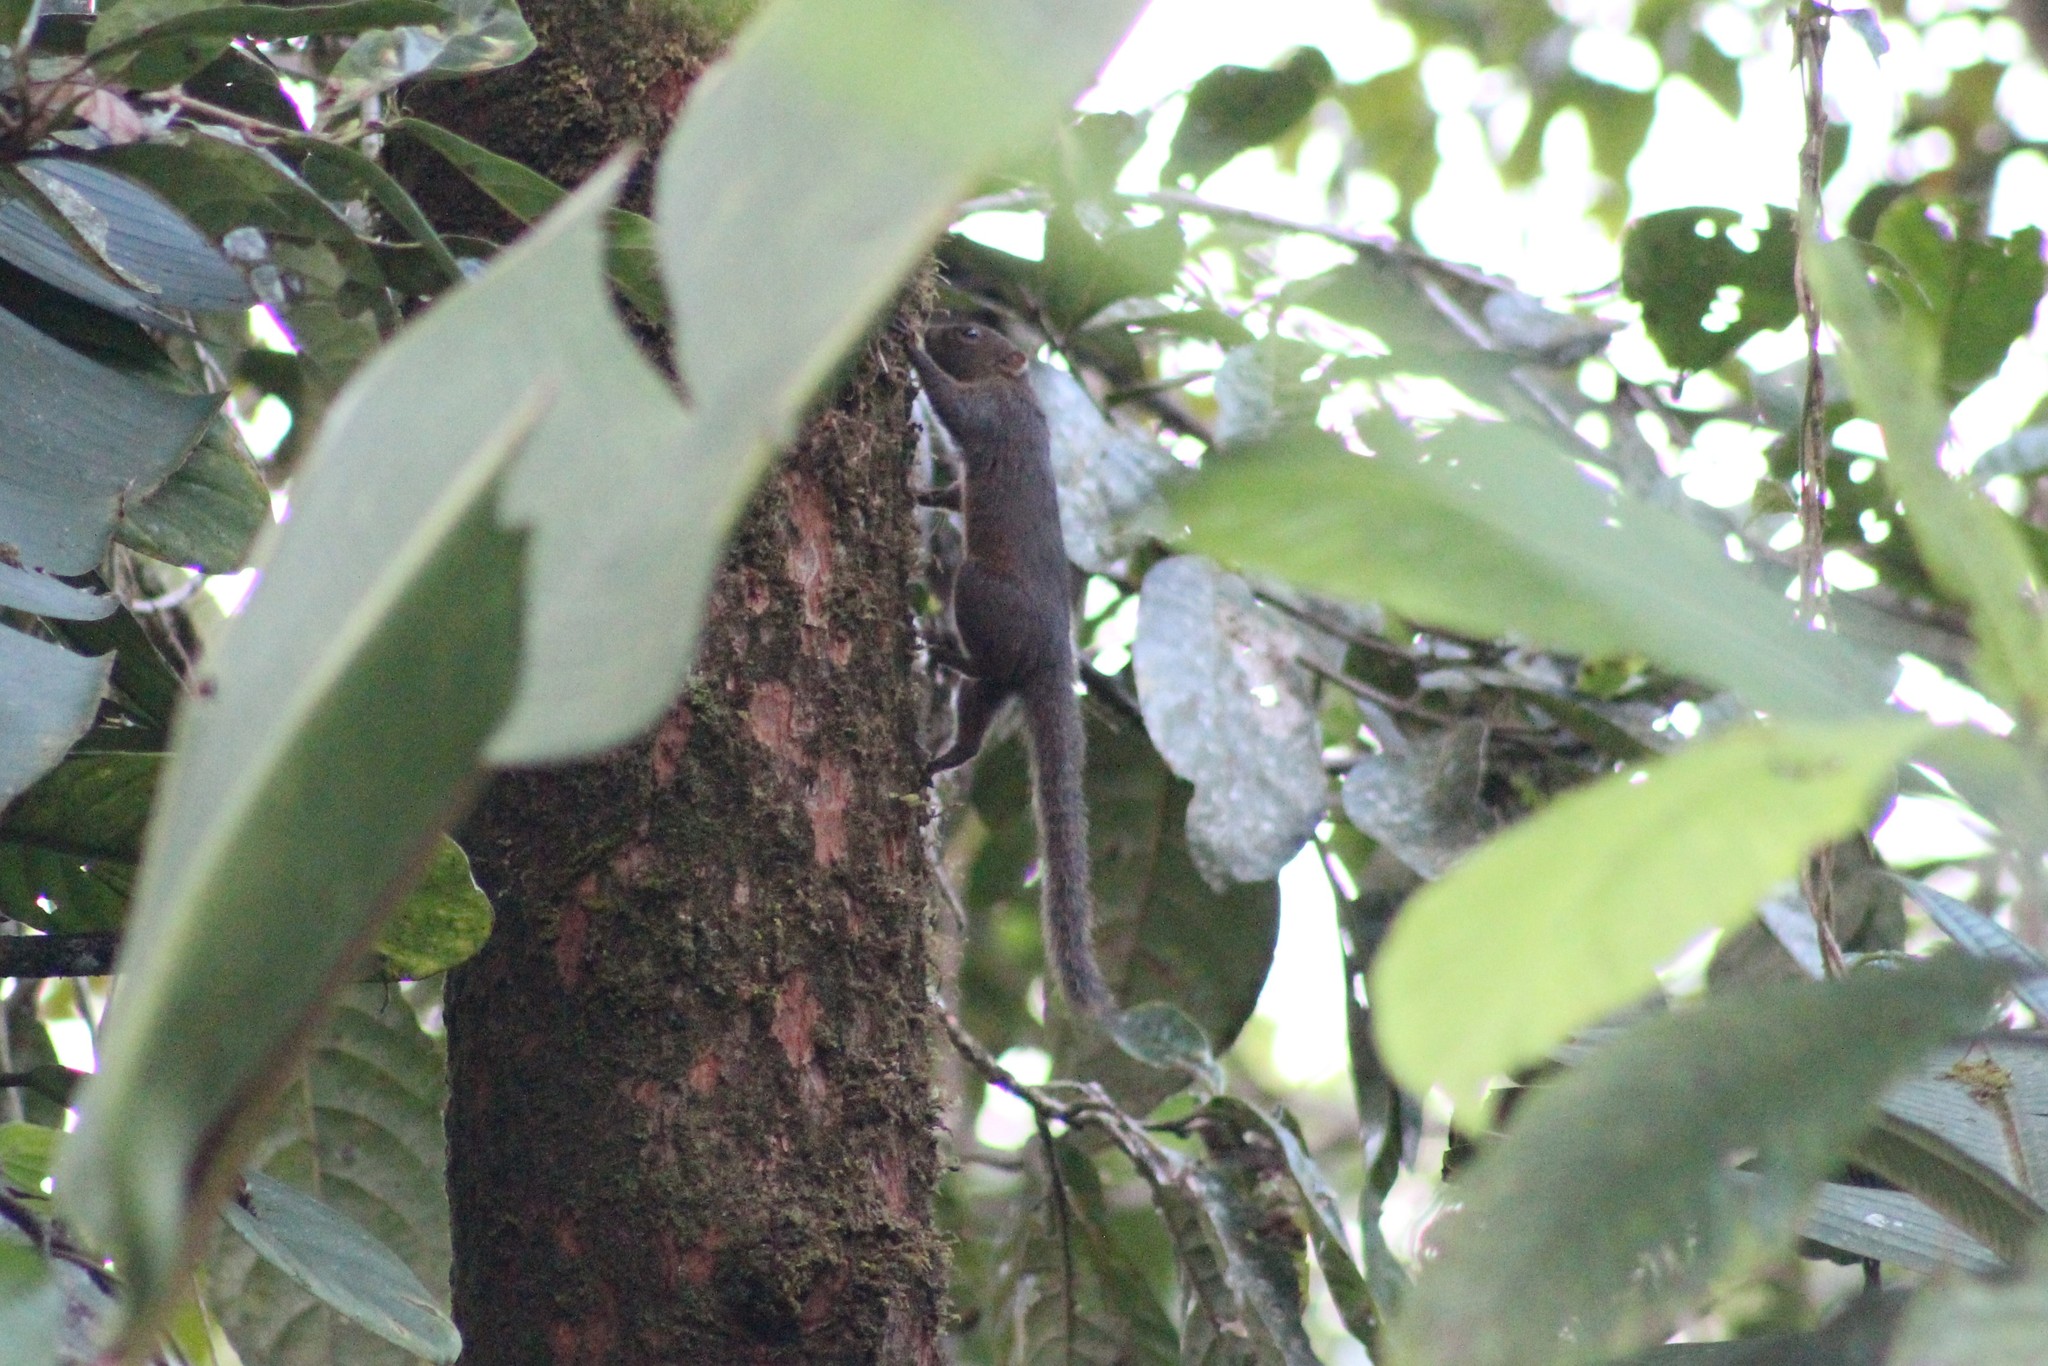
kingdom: Animalia
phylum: Chordata
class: Mammalia
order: Rodentia
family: Sciuridae
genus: Microsciurus
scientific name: Microsciurus flaviventer
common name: Amazon dwarf squirrel
